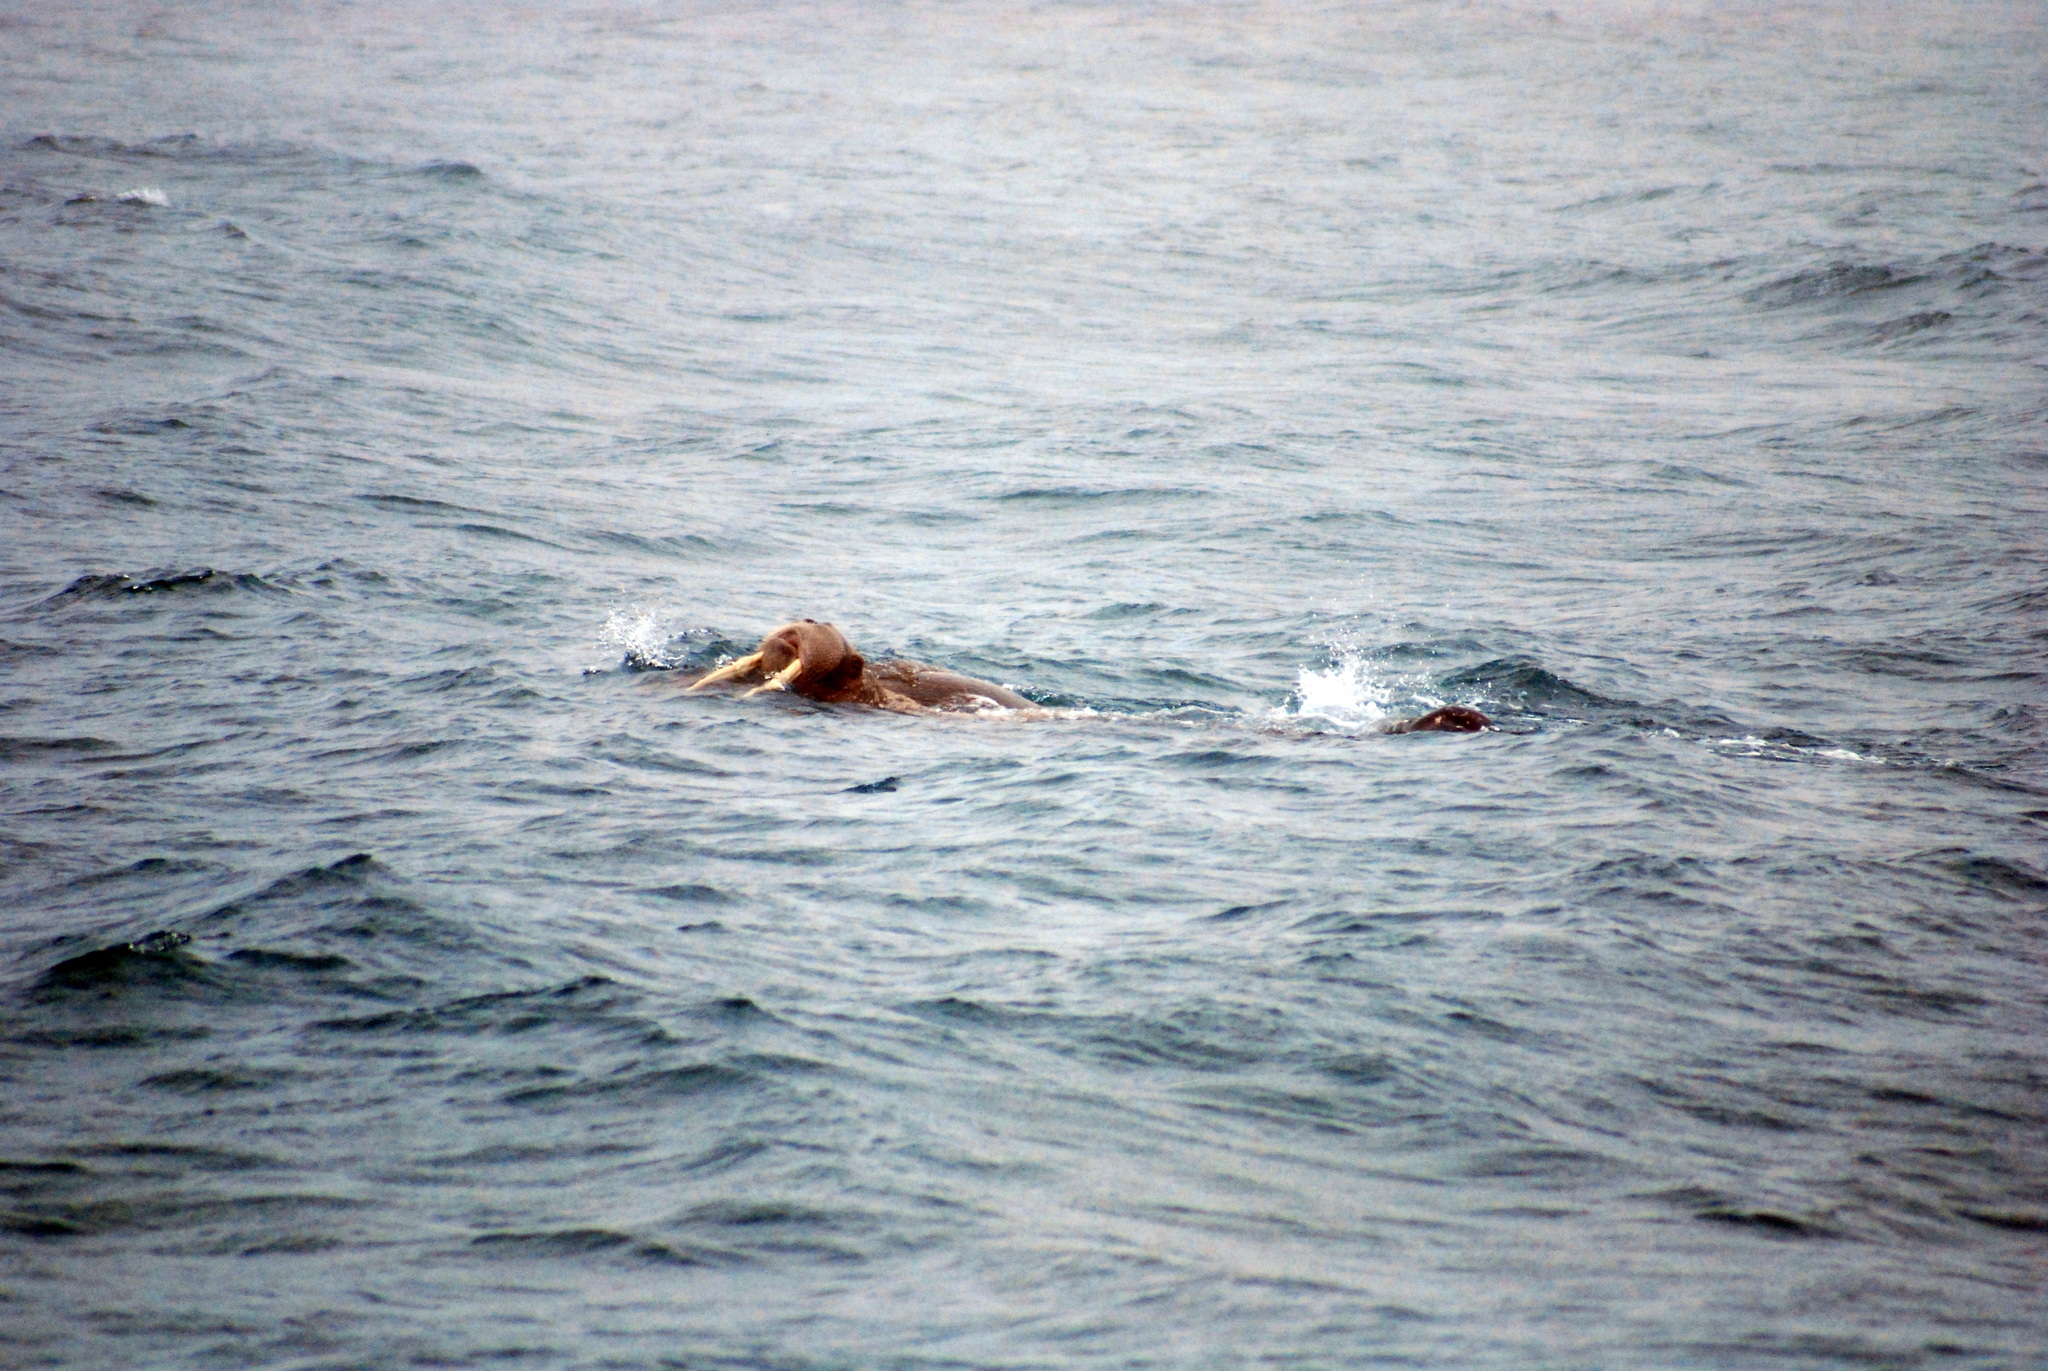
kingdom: Animalia
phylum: Chordata
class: Mammalia
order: Carnivora
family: Odobenidae
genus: Odobenus
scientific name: Odobenus rosmarus
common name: Walrus
